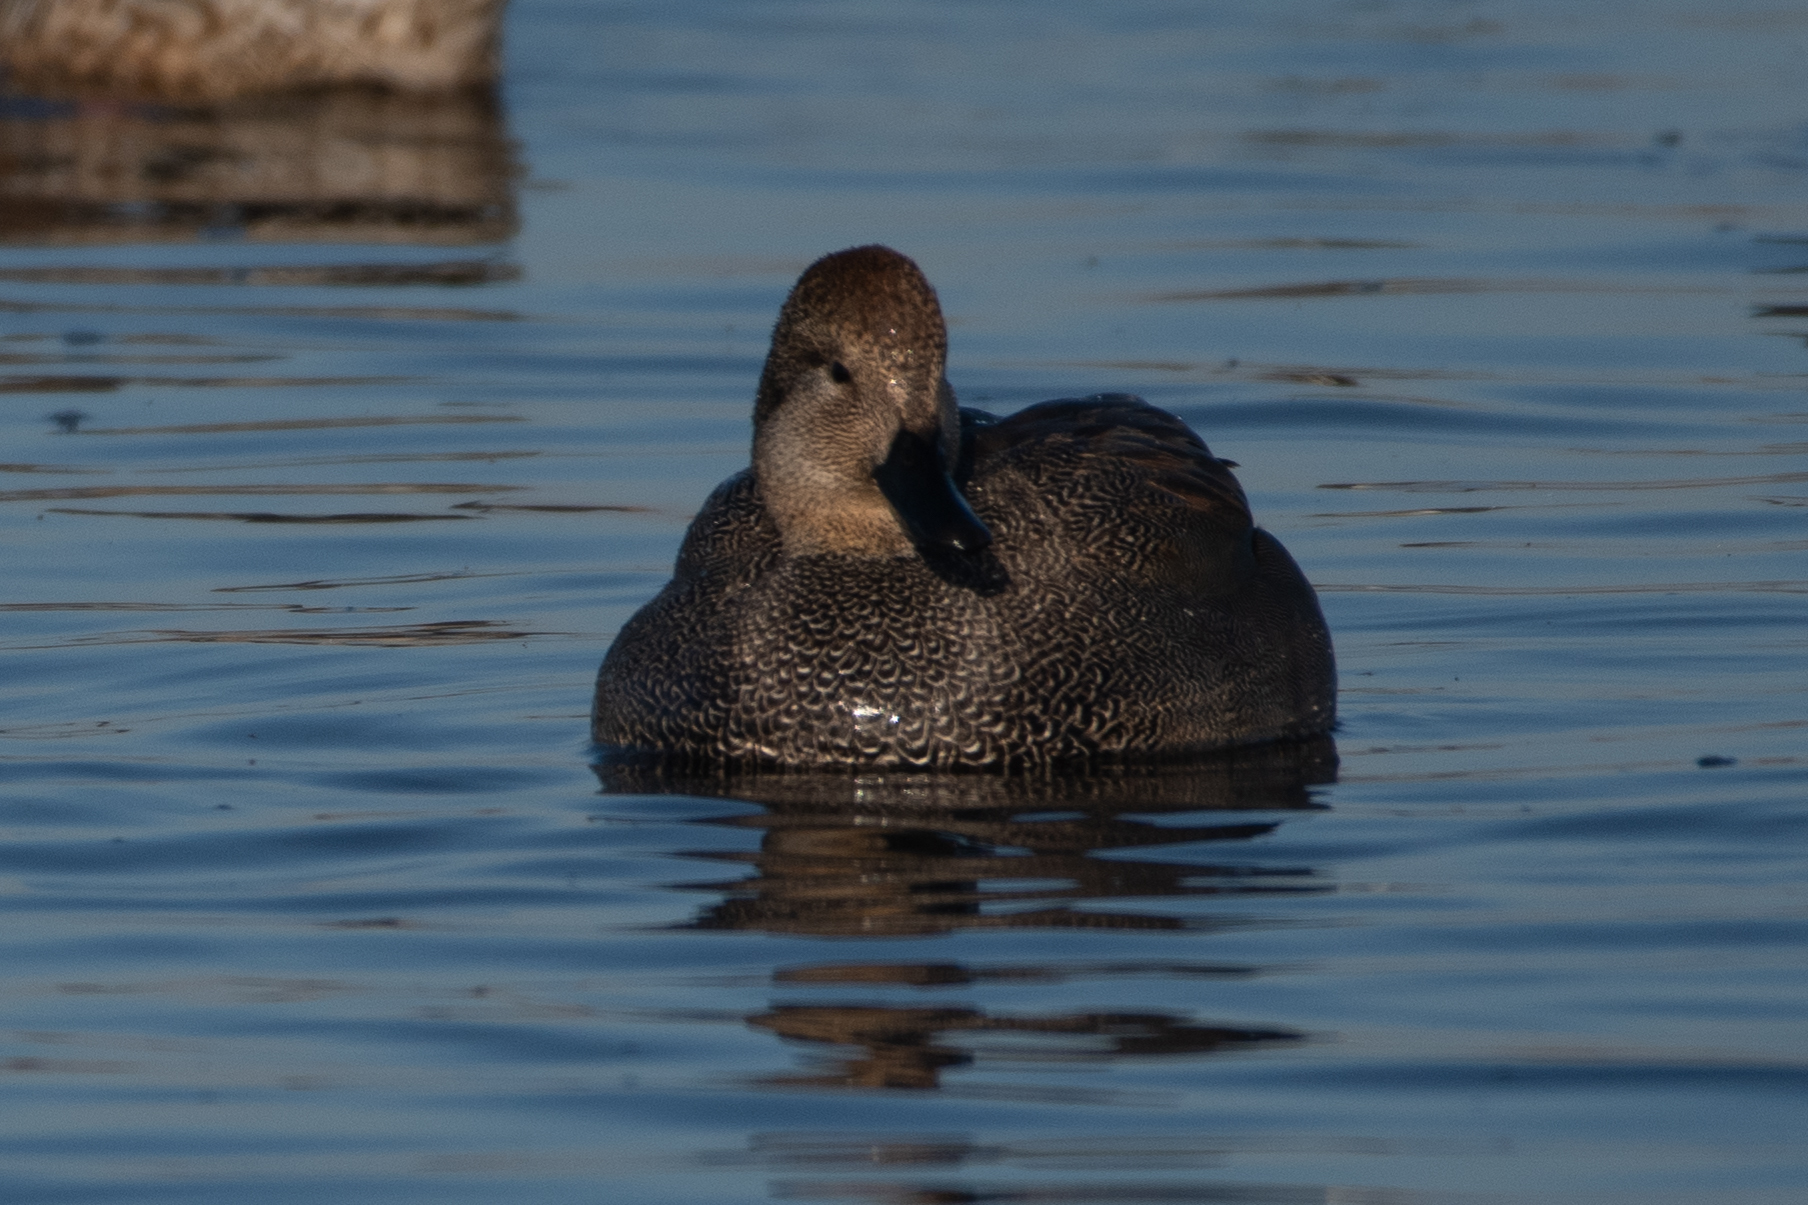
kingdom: Animalia
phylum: Chordata
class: Aves
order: Anseriformes
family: Anatidae
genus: Mareca
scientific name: Mareca strepera
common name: Gadwall
